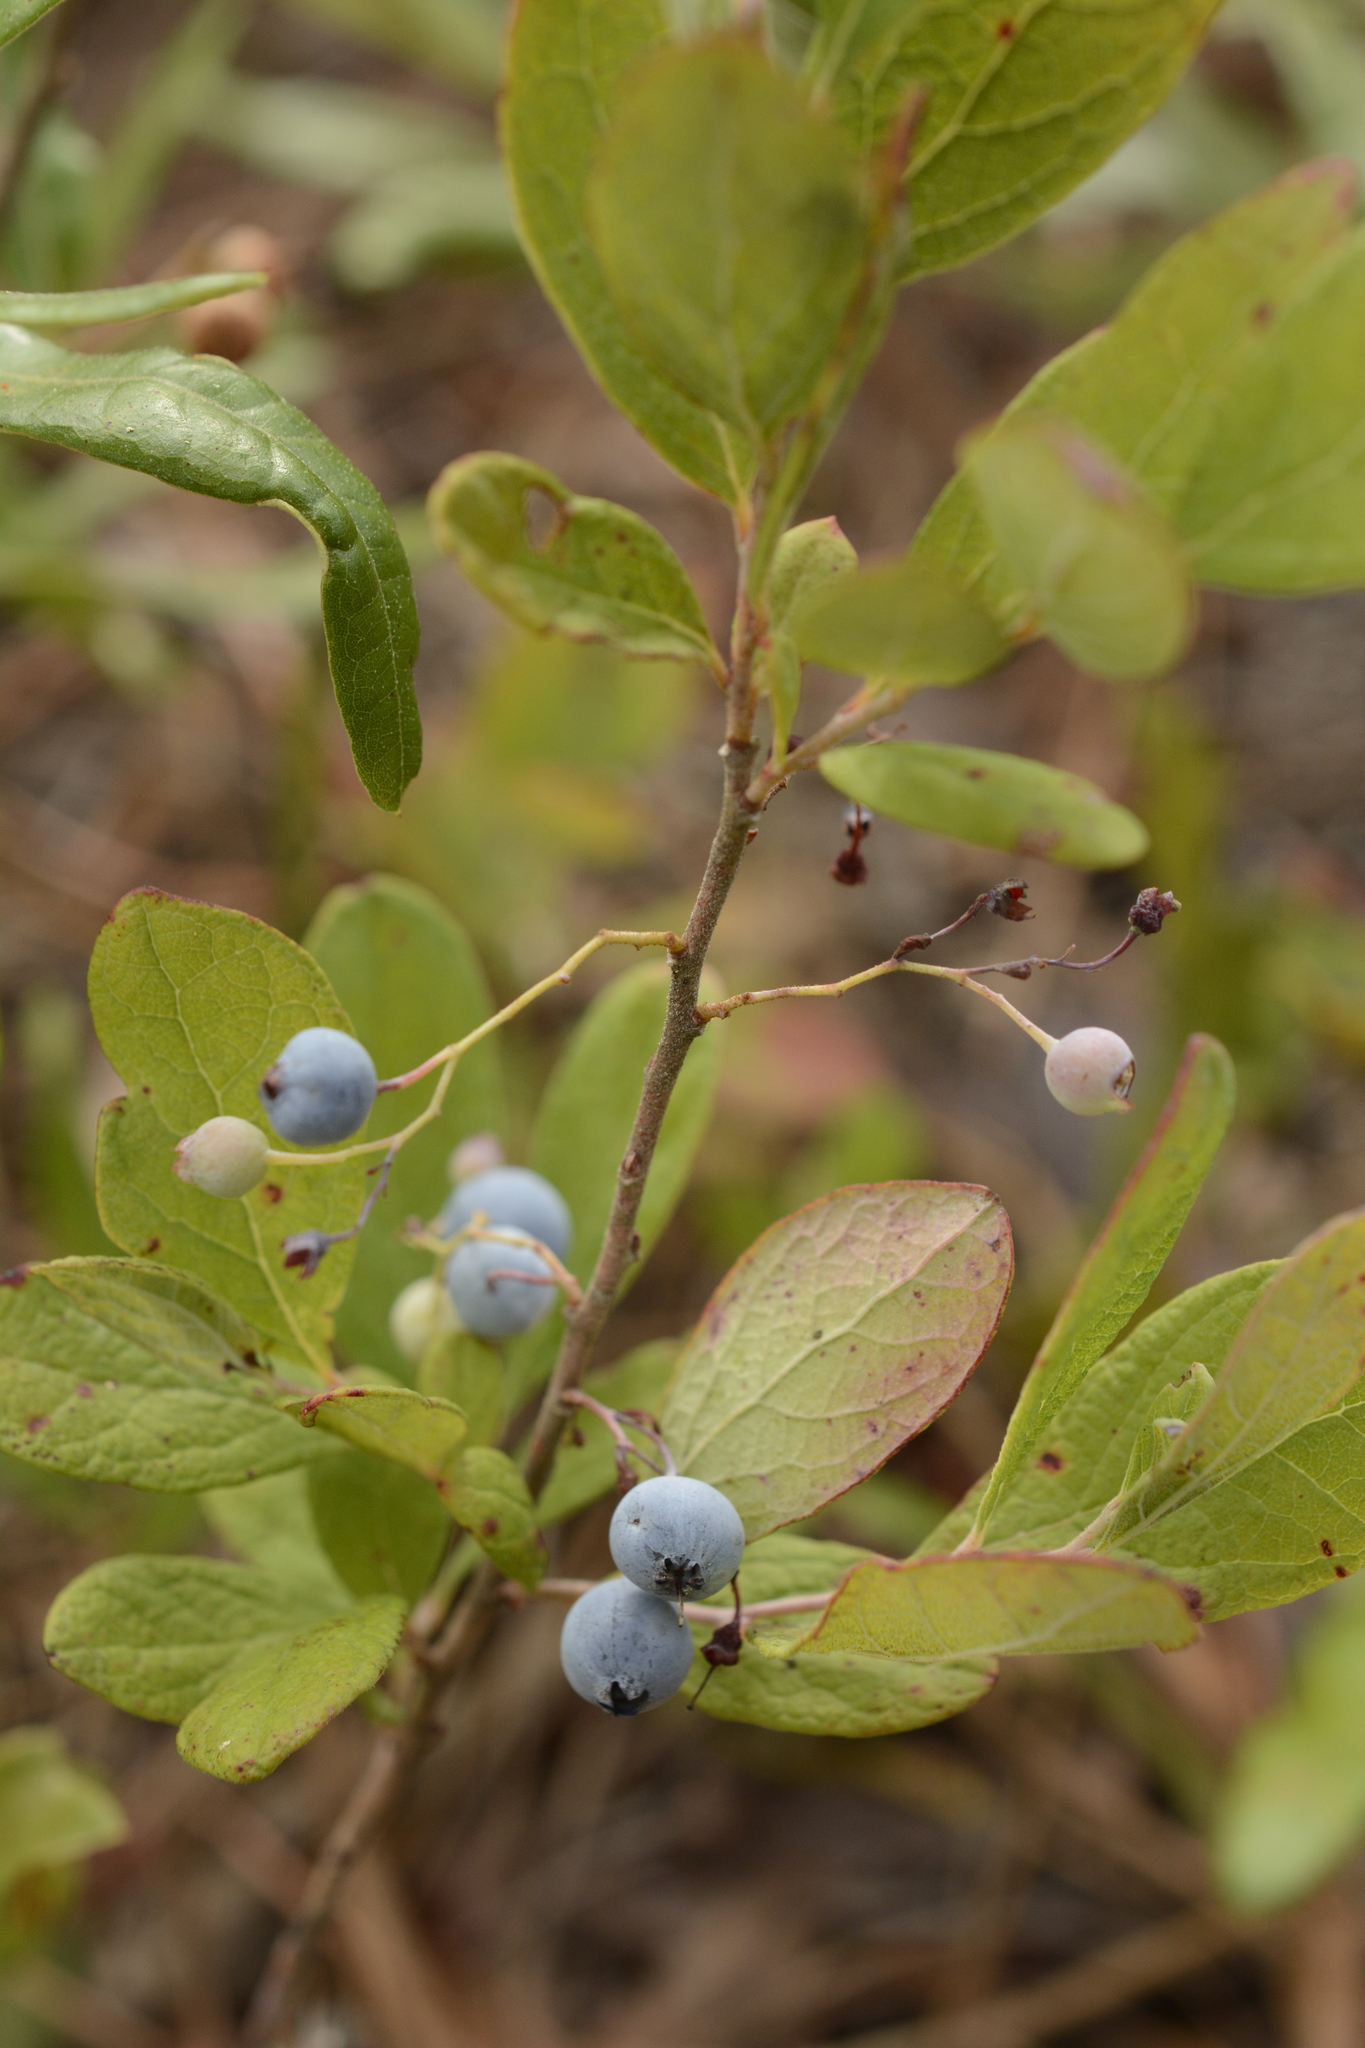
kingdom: Plantae
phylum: Tracheophyta
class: Magnoliopsida
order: Ericales
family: Ericaceae
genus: Gaylussacia
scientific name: Gaylussacia tomentosa
